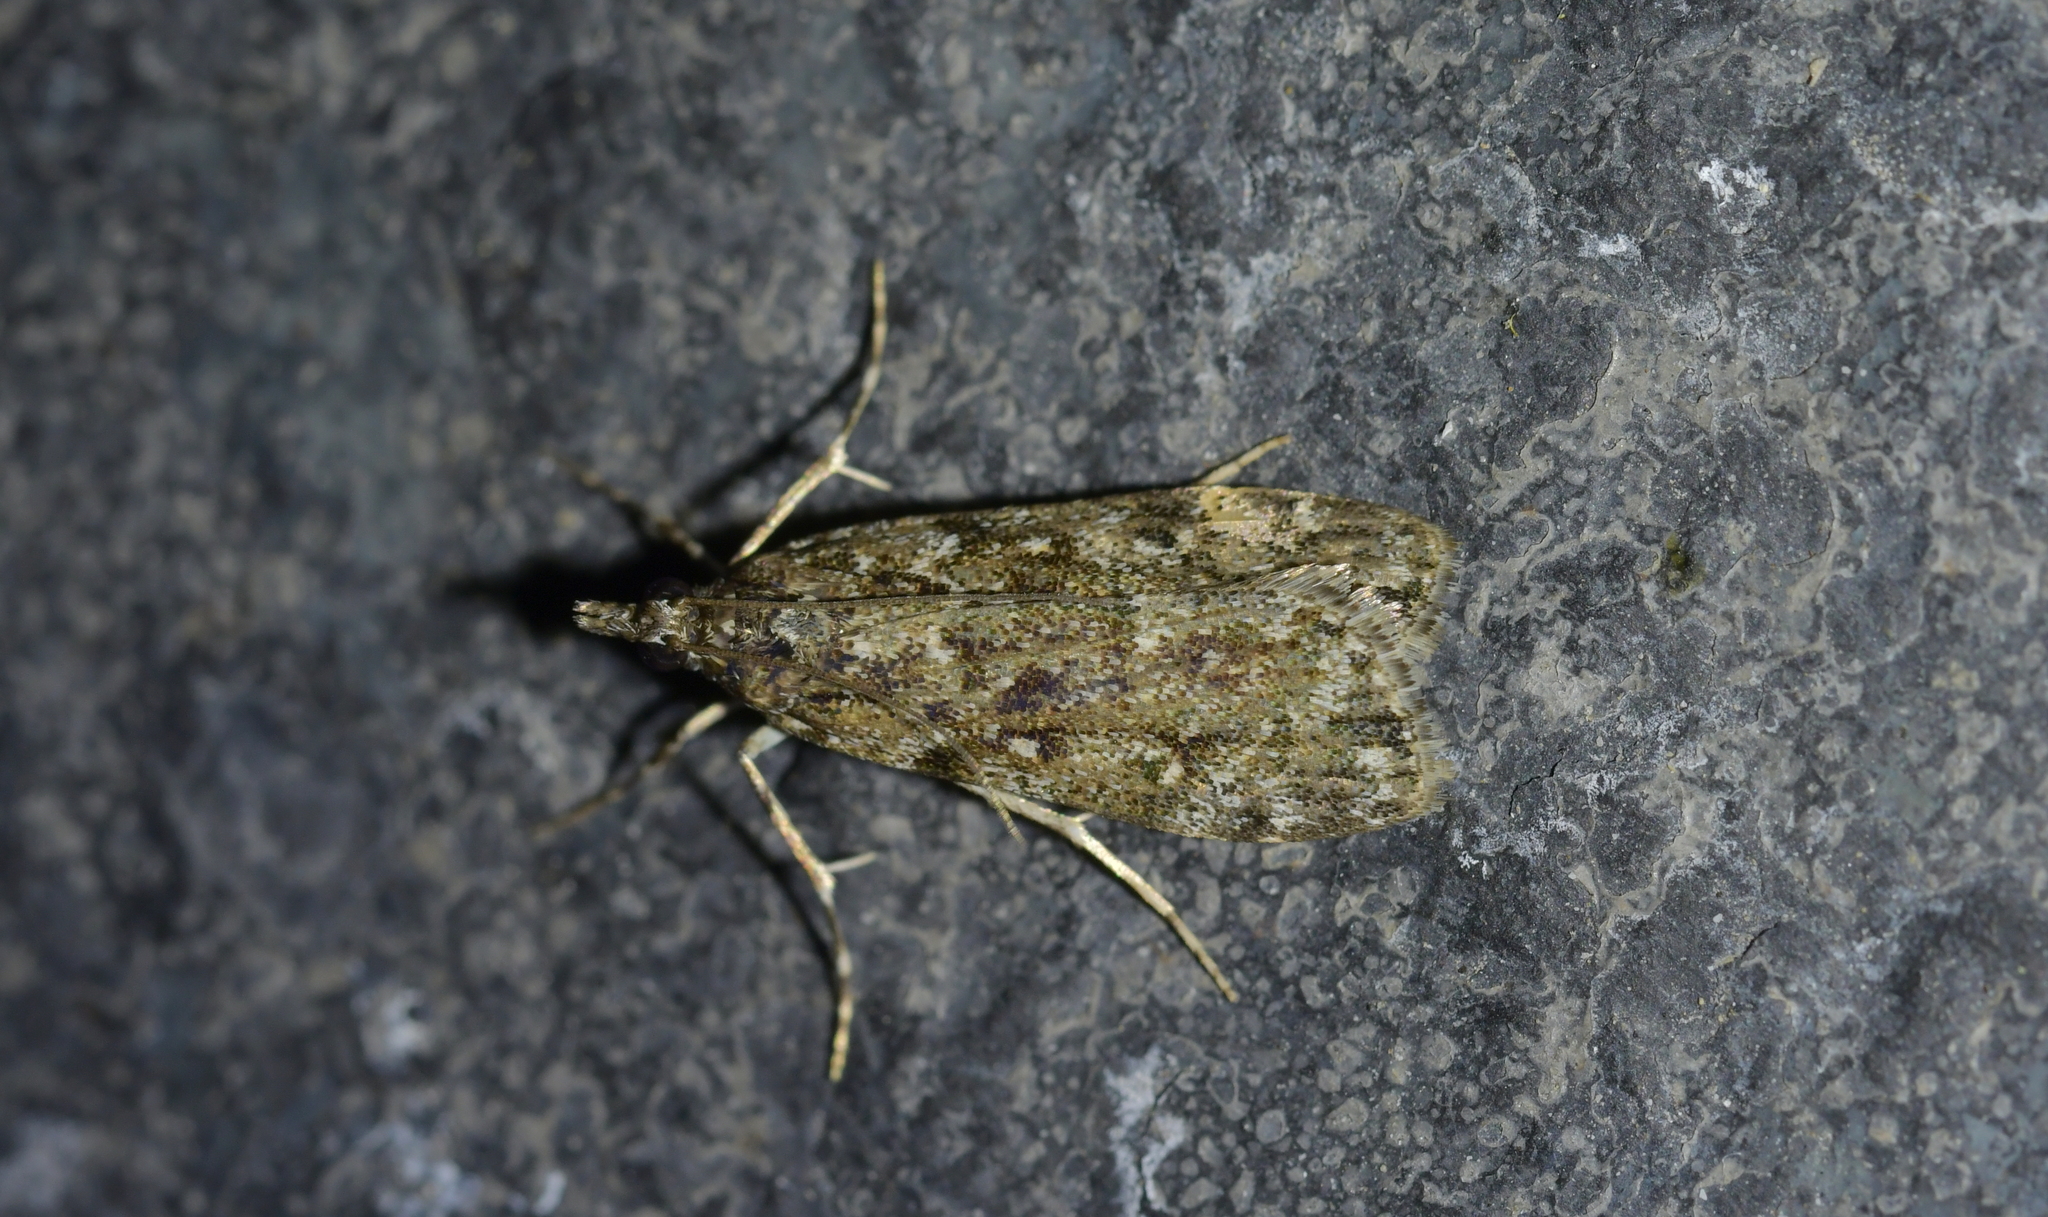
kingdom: Animalia
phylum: Arthropoda
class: Insecta
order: Lepidoptera
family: Crambidae
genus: Eudonia
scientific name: Eudonia philerga
